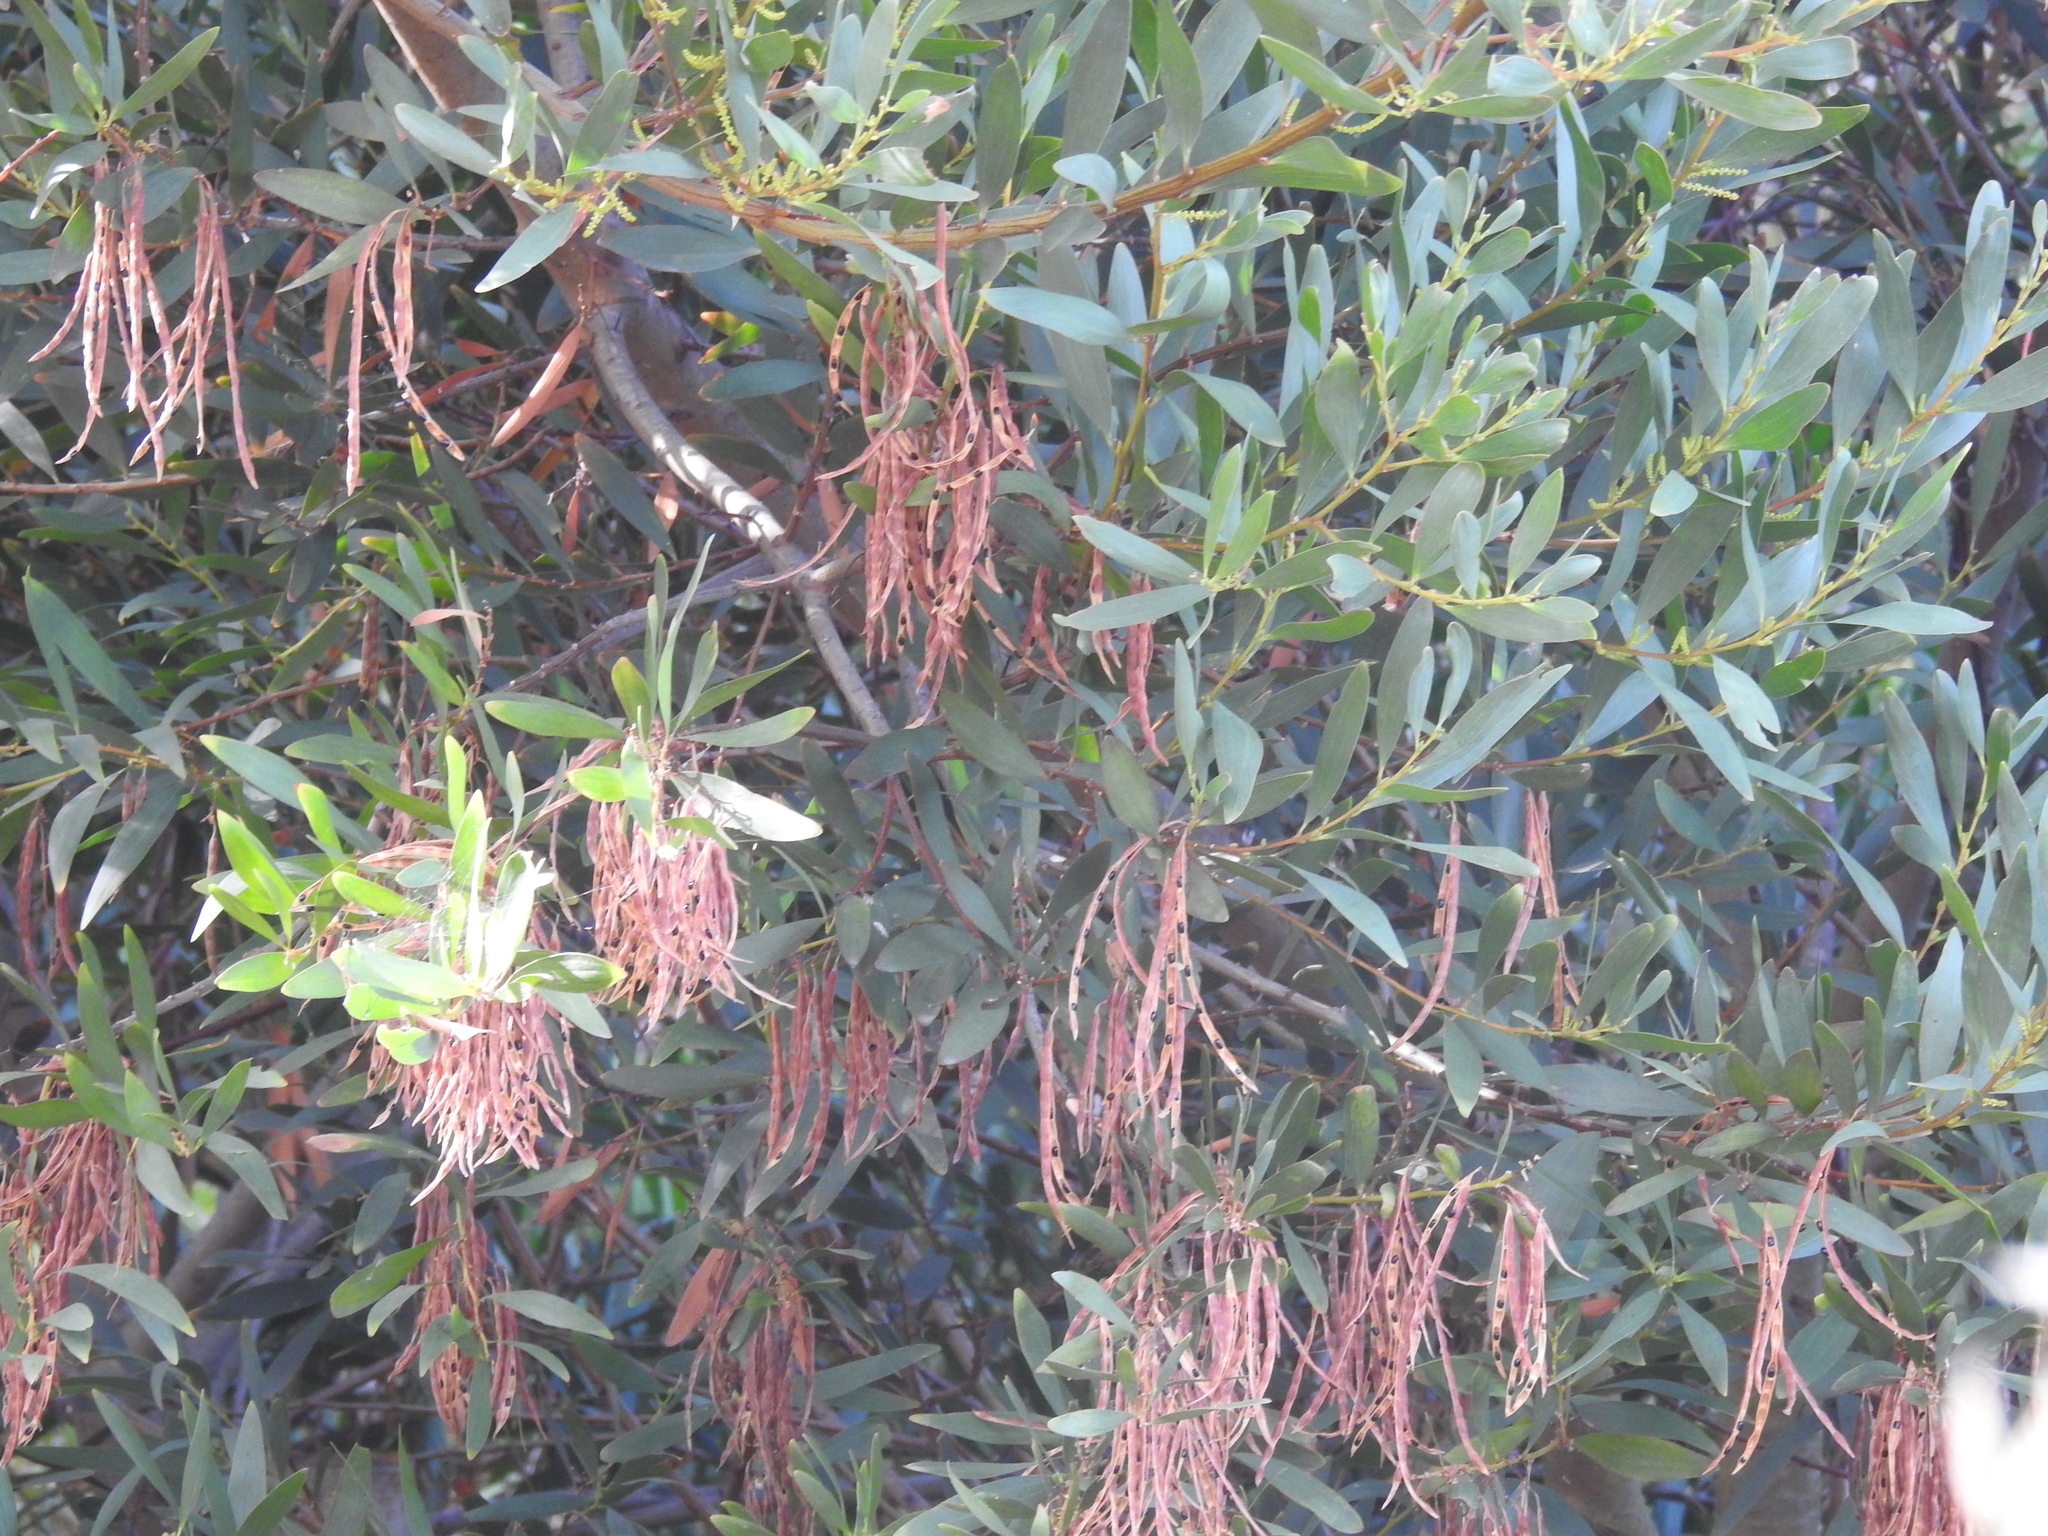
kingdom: Plantae
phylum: Tracheophyta
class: Magnoliopsida
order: Fabales
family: Fabaceae
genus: Acacia
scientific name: Acacia longifolia
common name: Sydney golden wattle
